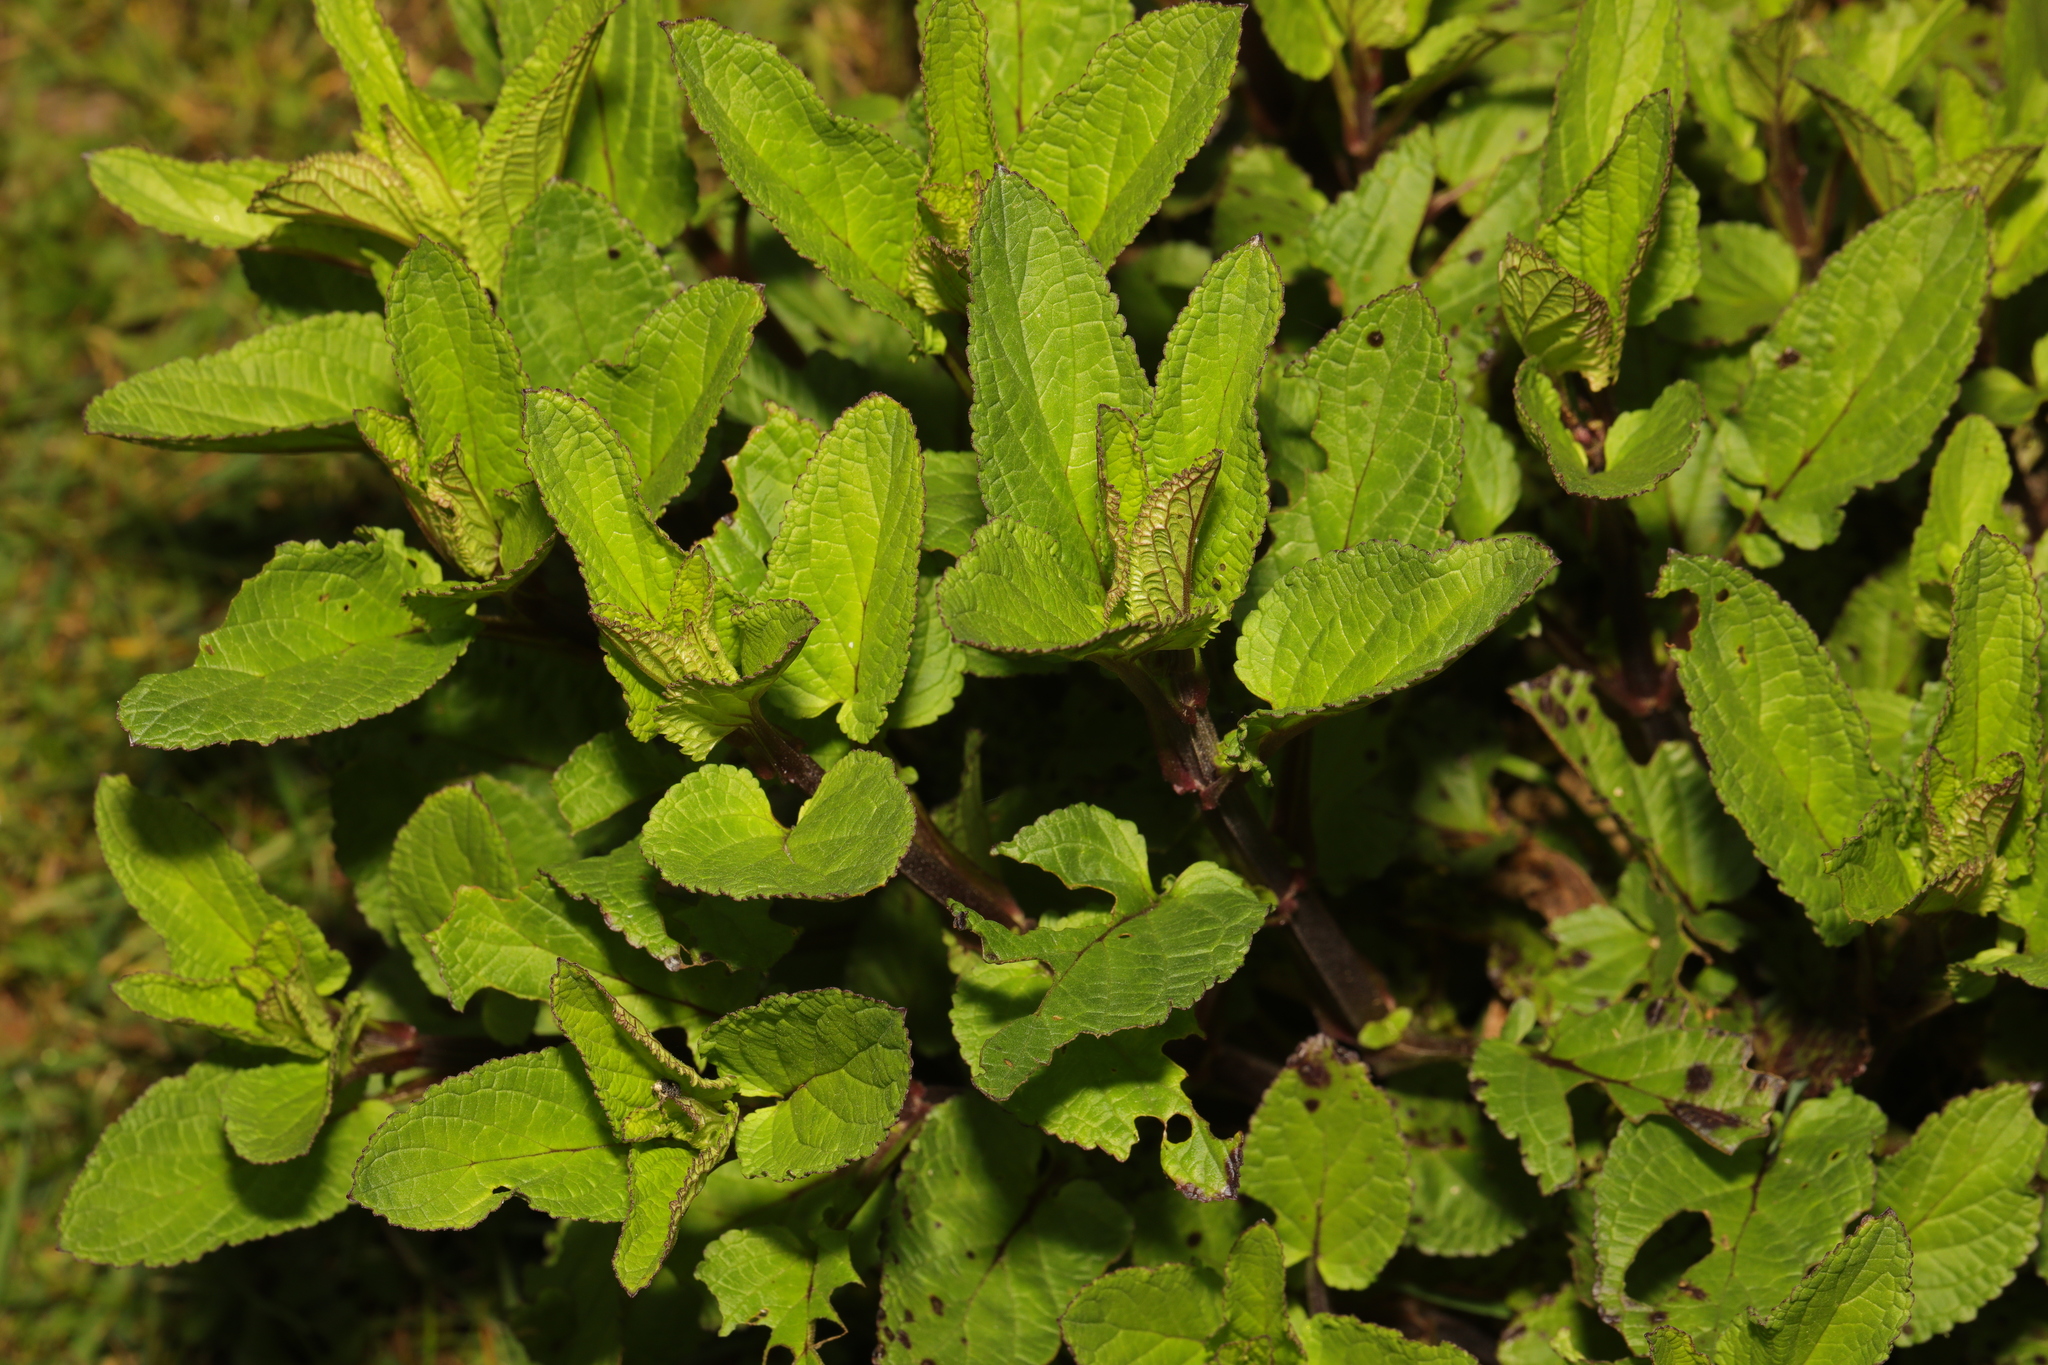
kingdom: Plantae
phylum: Tracheophyta
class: Magnoliopsida
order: Lamiales
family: Scrophulariaceae
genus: Scrophularia
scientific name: Scrophularia auriculata
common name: Water betony
